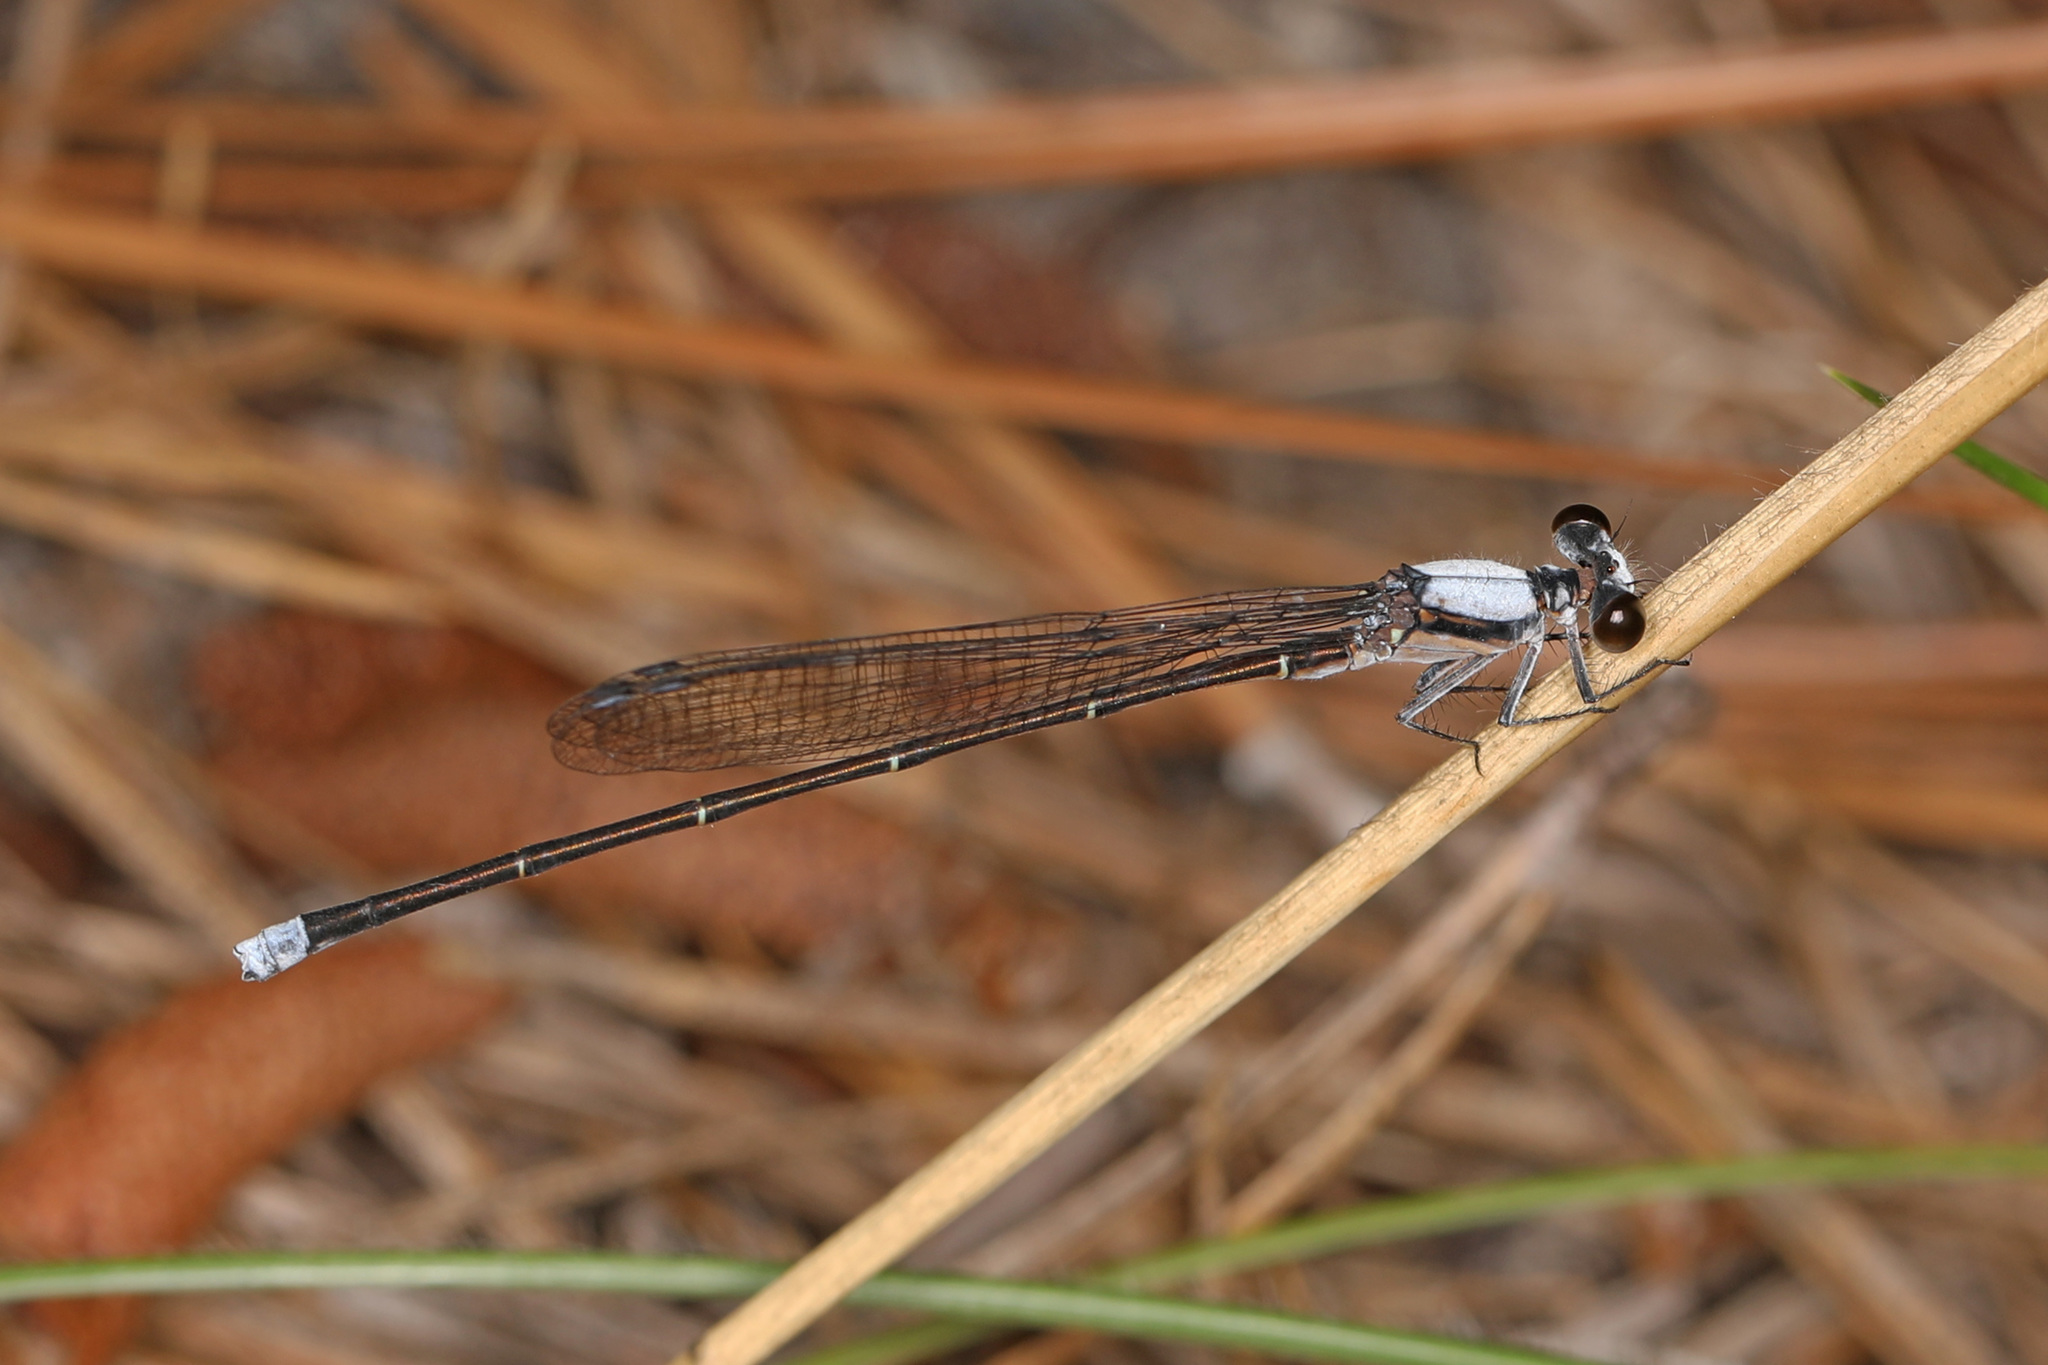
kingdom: Animalia
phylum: Arthropoda
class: Insecta
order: Odonata
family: Coenagrionidae
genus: Argia
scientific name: Argia moesta
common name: Powdered dancer
